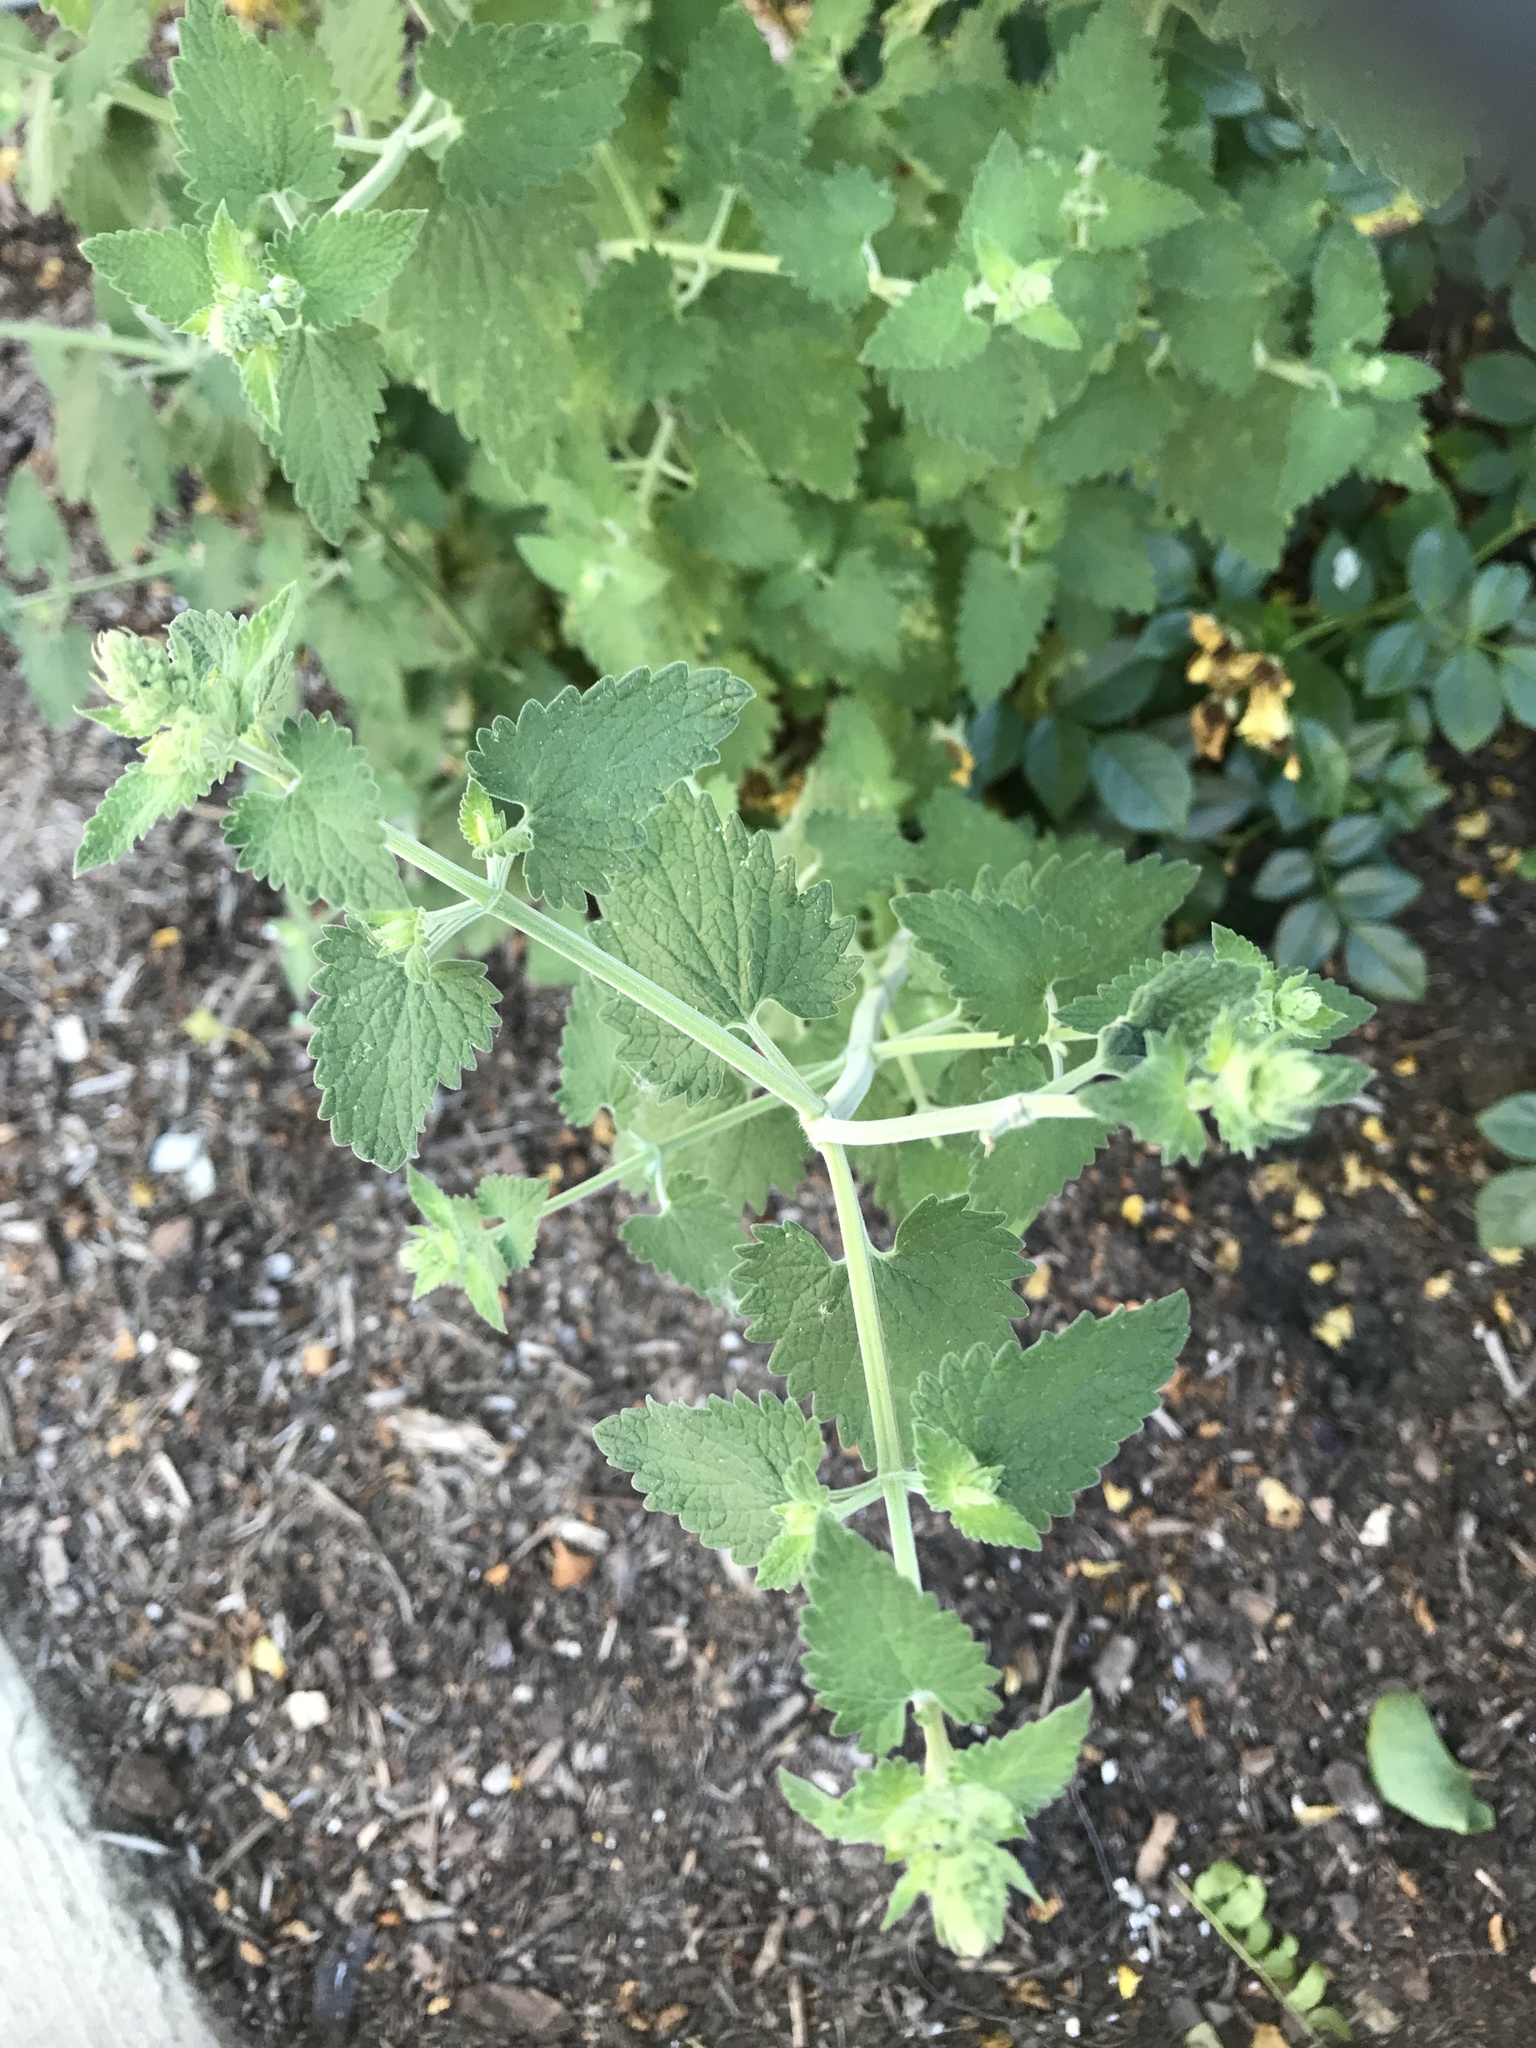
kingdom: Plantae
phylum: Tracheophyta
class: Magnoliopsida
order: Lamiales
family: Lamiaceae
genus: Nepeta
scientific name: Nepeta cataria
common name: Catnip
